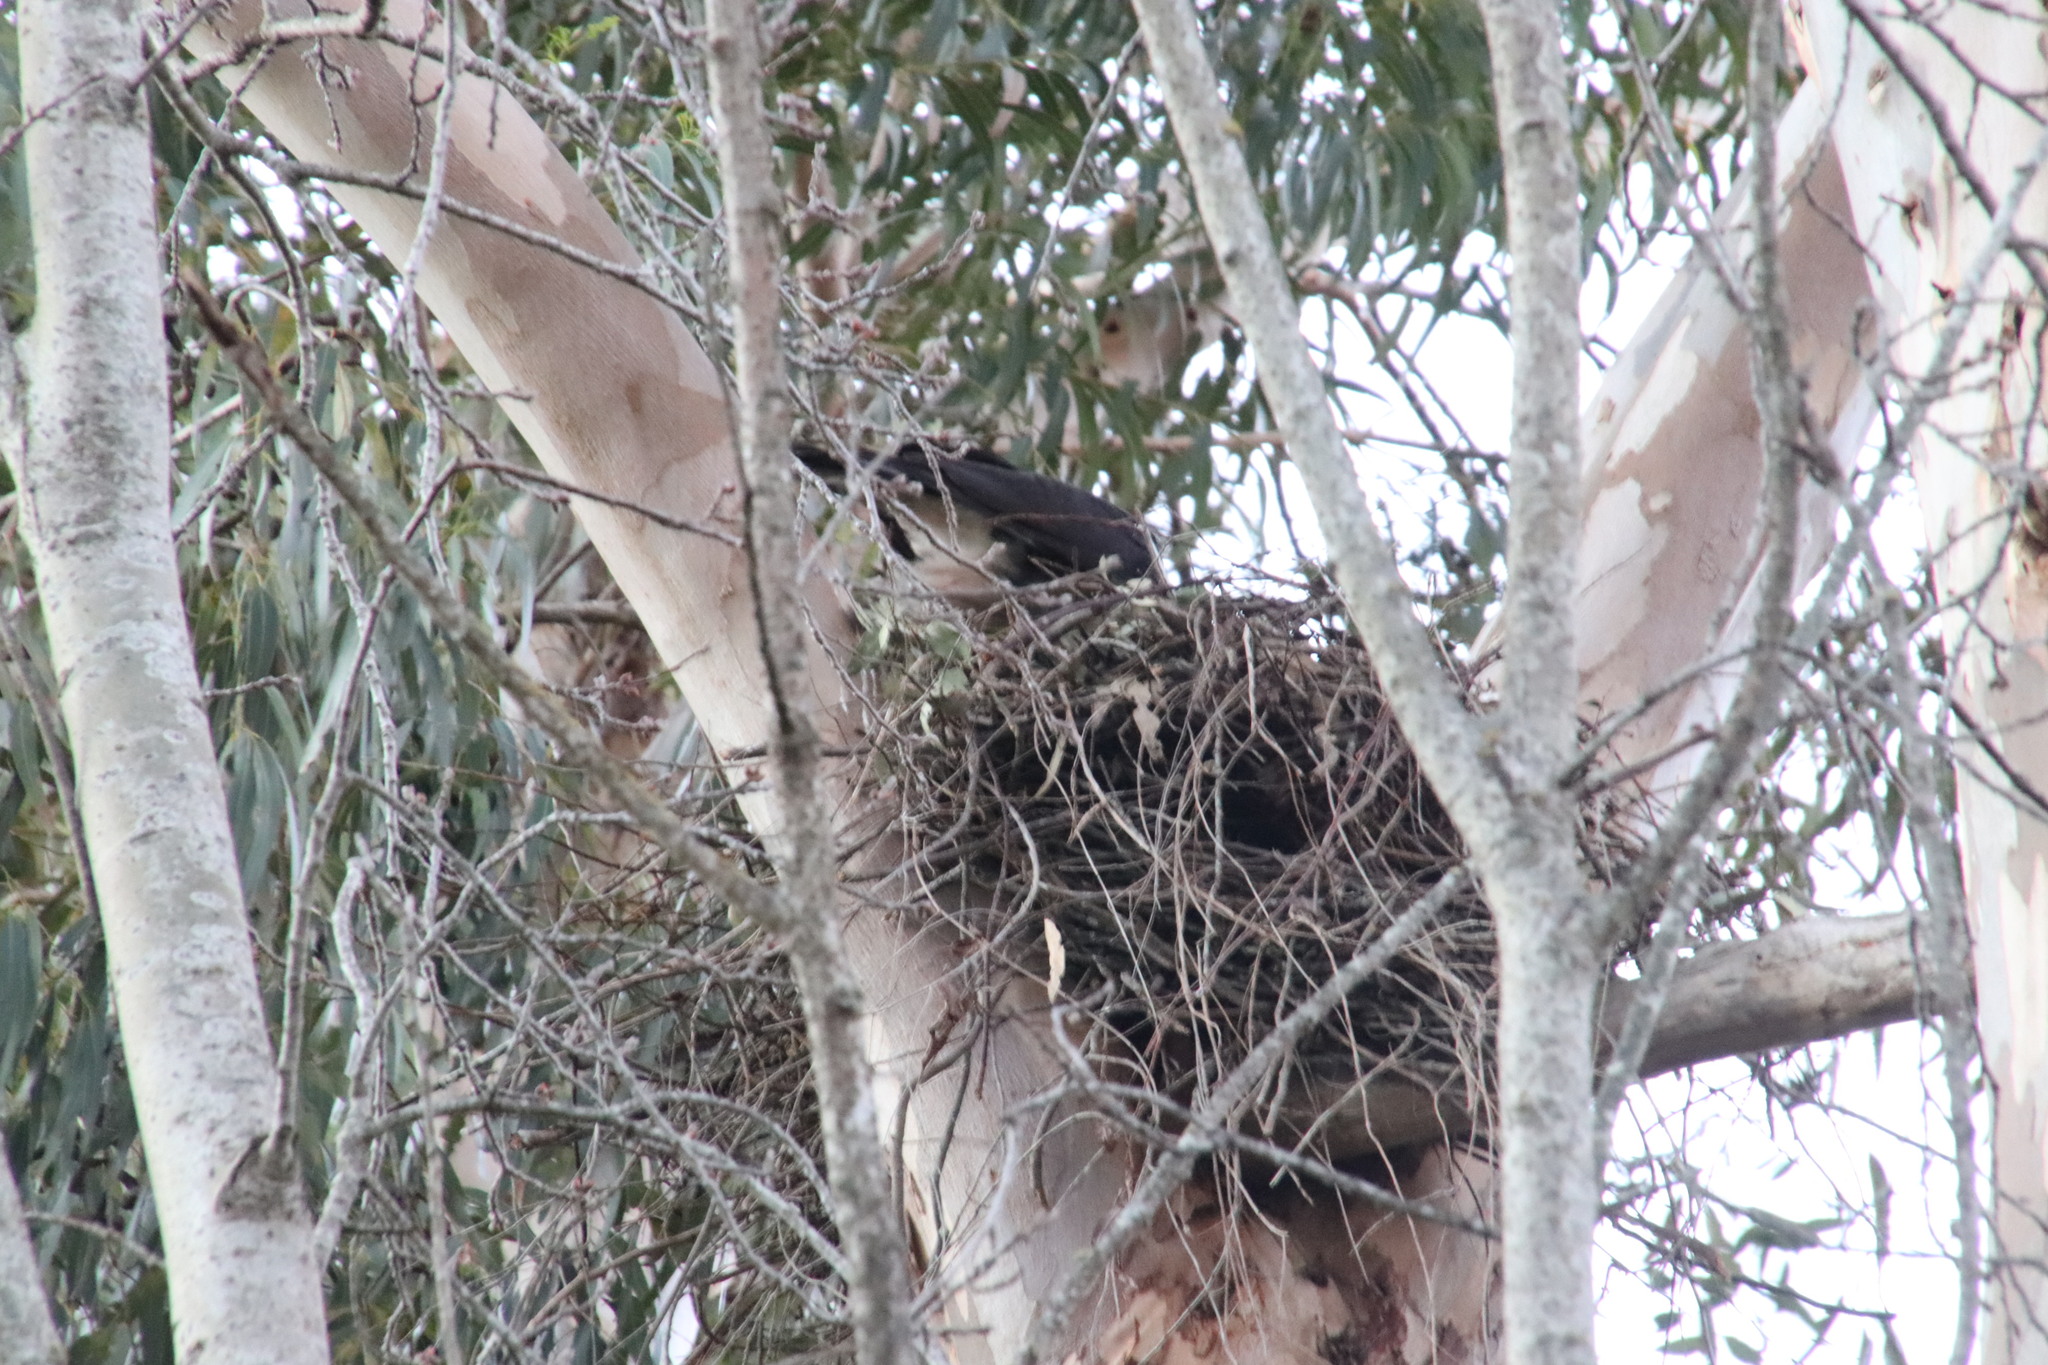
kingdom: Animalia
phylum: Chordata
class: Aves
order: Accipitriformes
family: Accipitridae
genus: Accipiter
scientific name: Accipiter melanoleucus
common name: Black sparrowhawk
